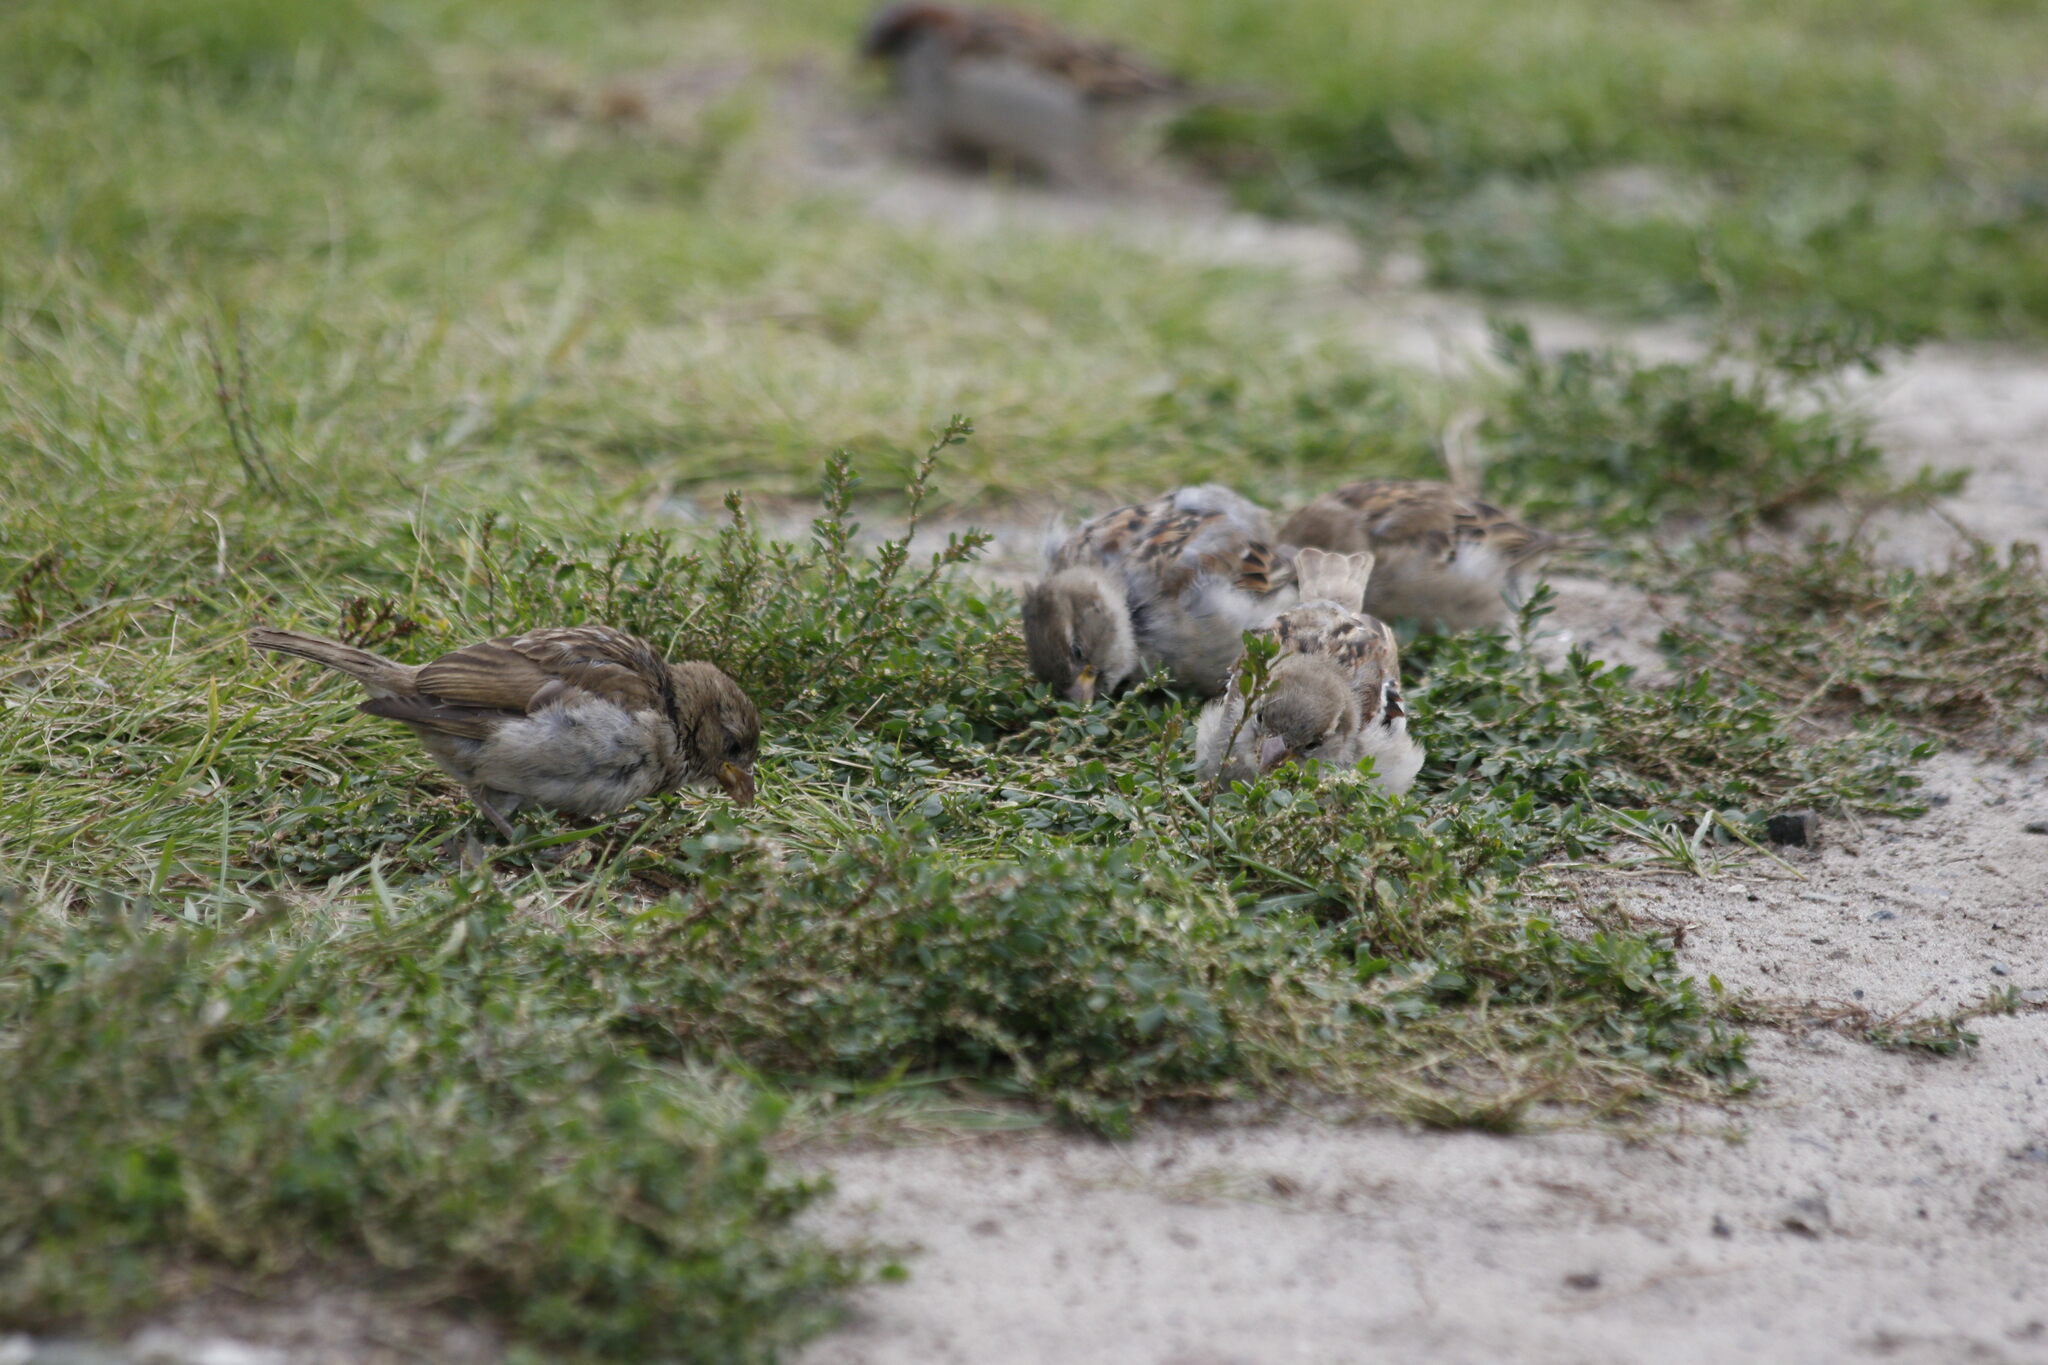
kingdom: Animalia
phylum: Chordata
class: Aves
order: Passeriformes
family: Passeridae
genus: Passer
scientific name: Passer domesticus
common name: House sparrow
